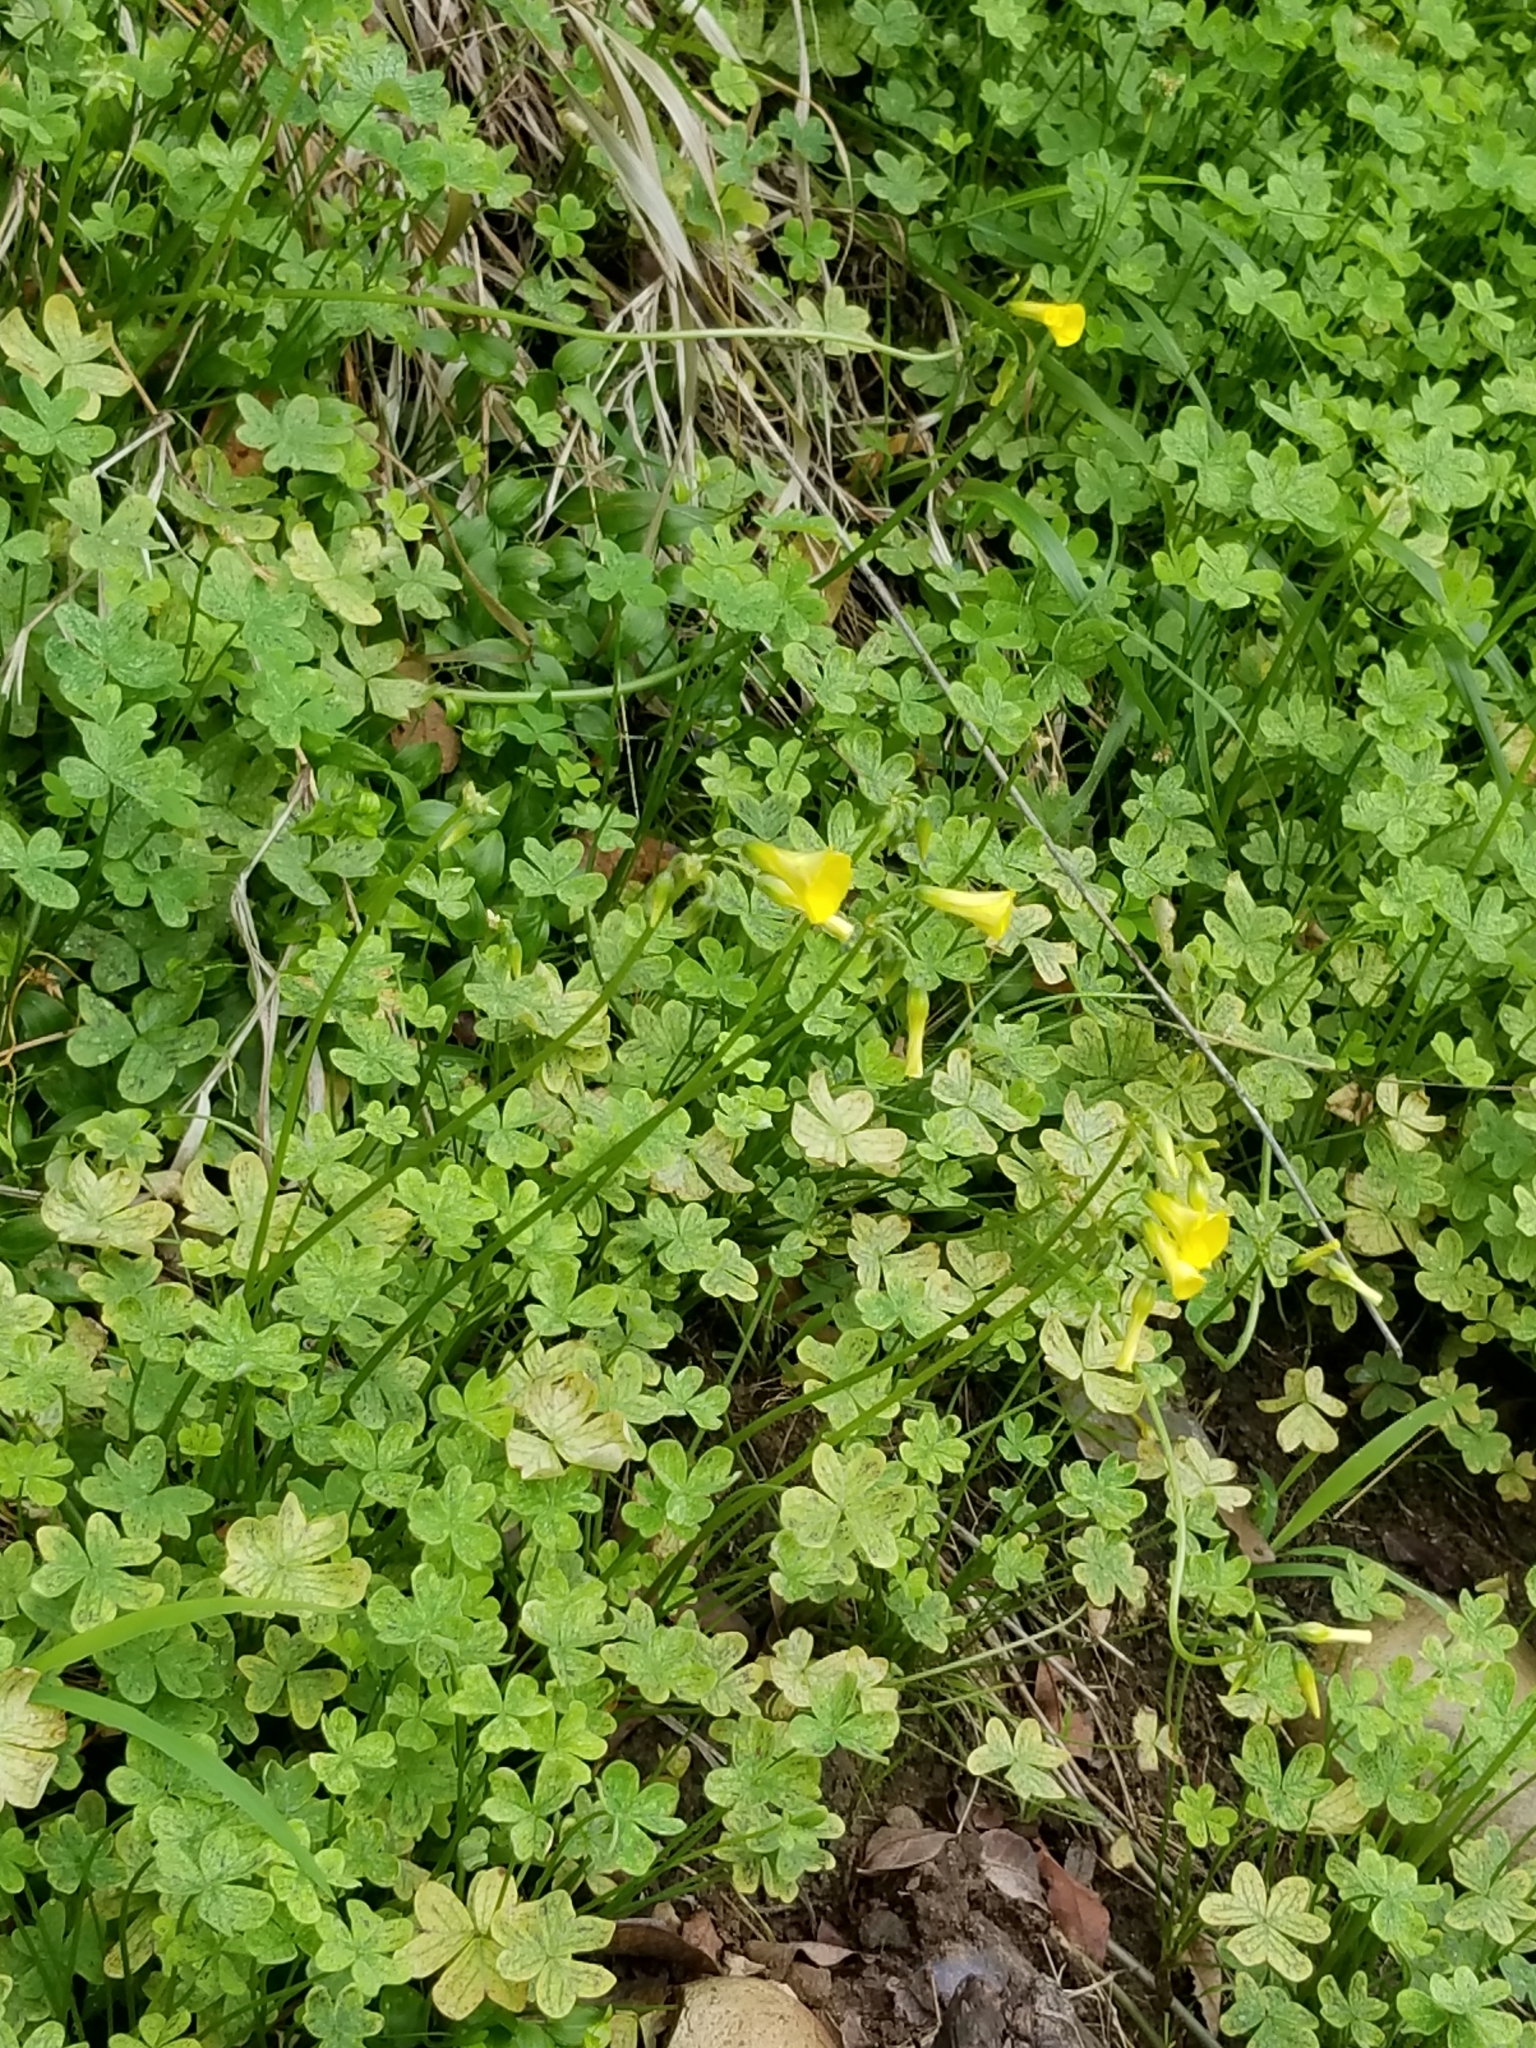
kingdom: Plantae
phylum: Tracheophyta
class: Magnoliopsida
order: Oxalidales
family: Oxalidaceae
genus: Oxalis
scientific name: Oxalis pes-caprae
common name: Bermuda-buttercup
